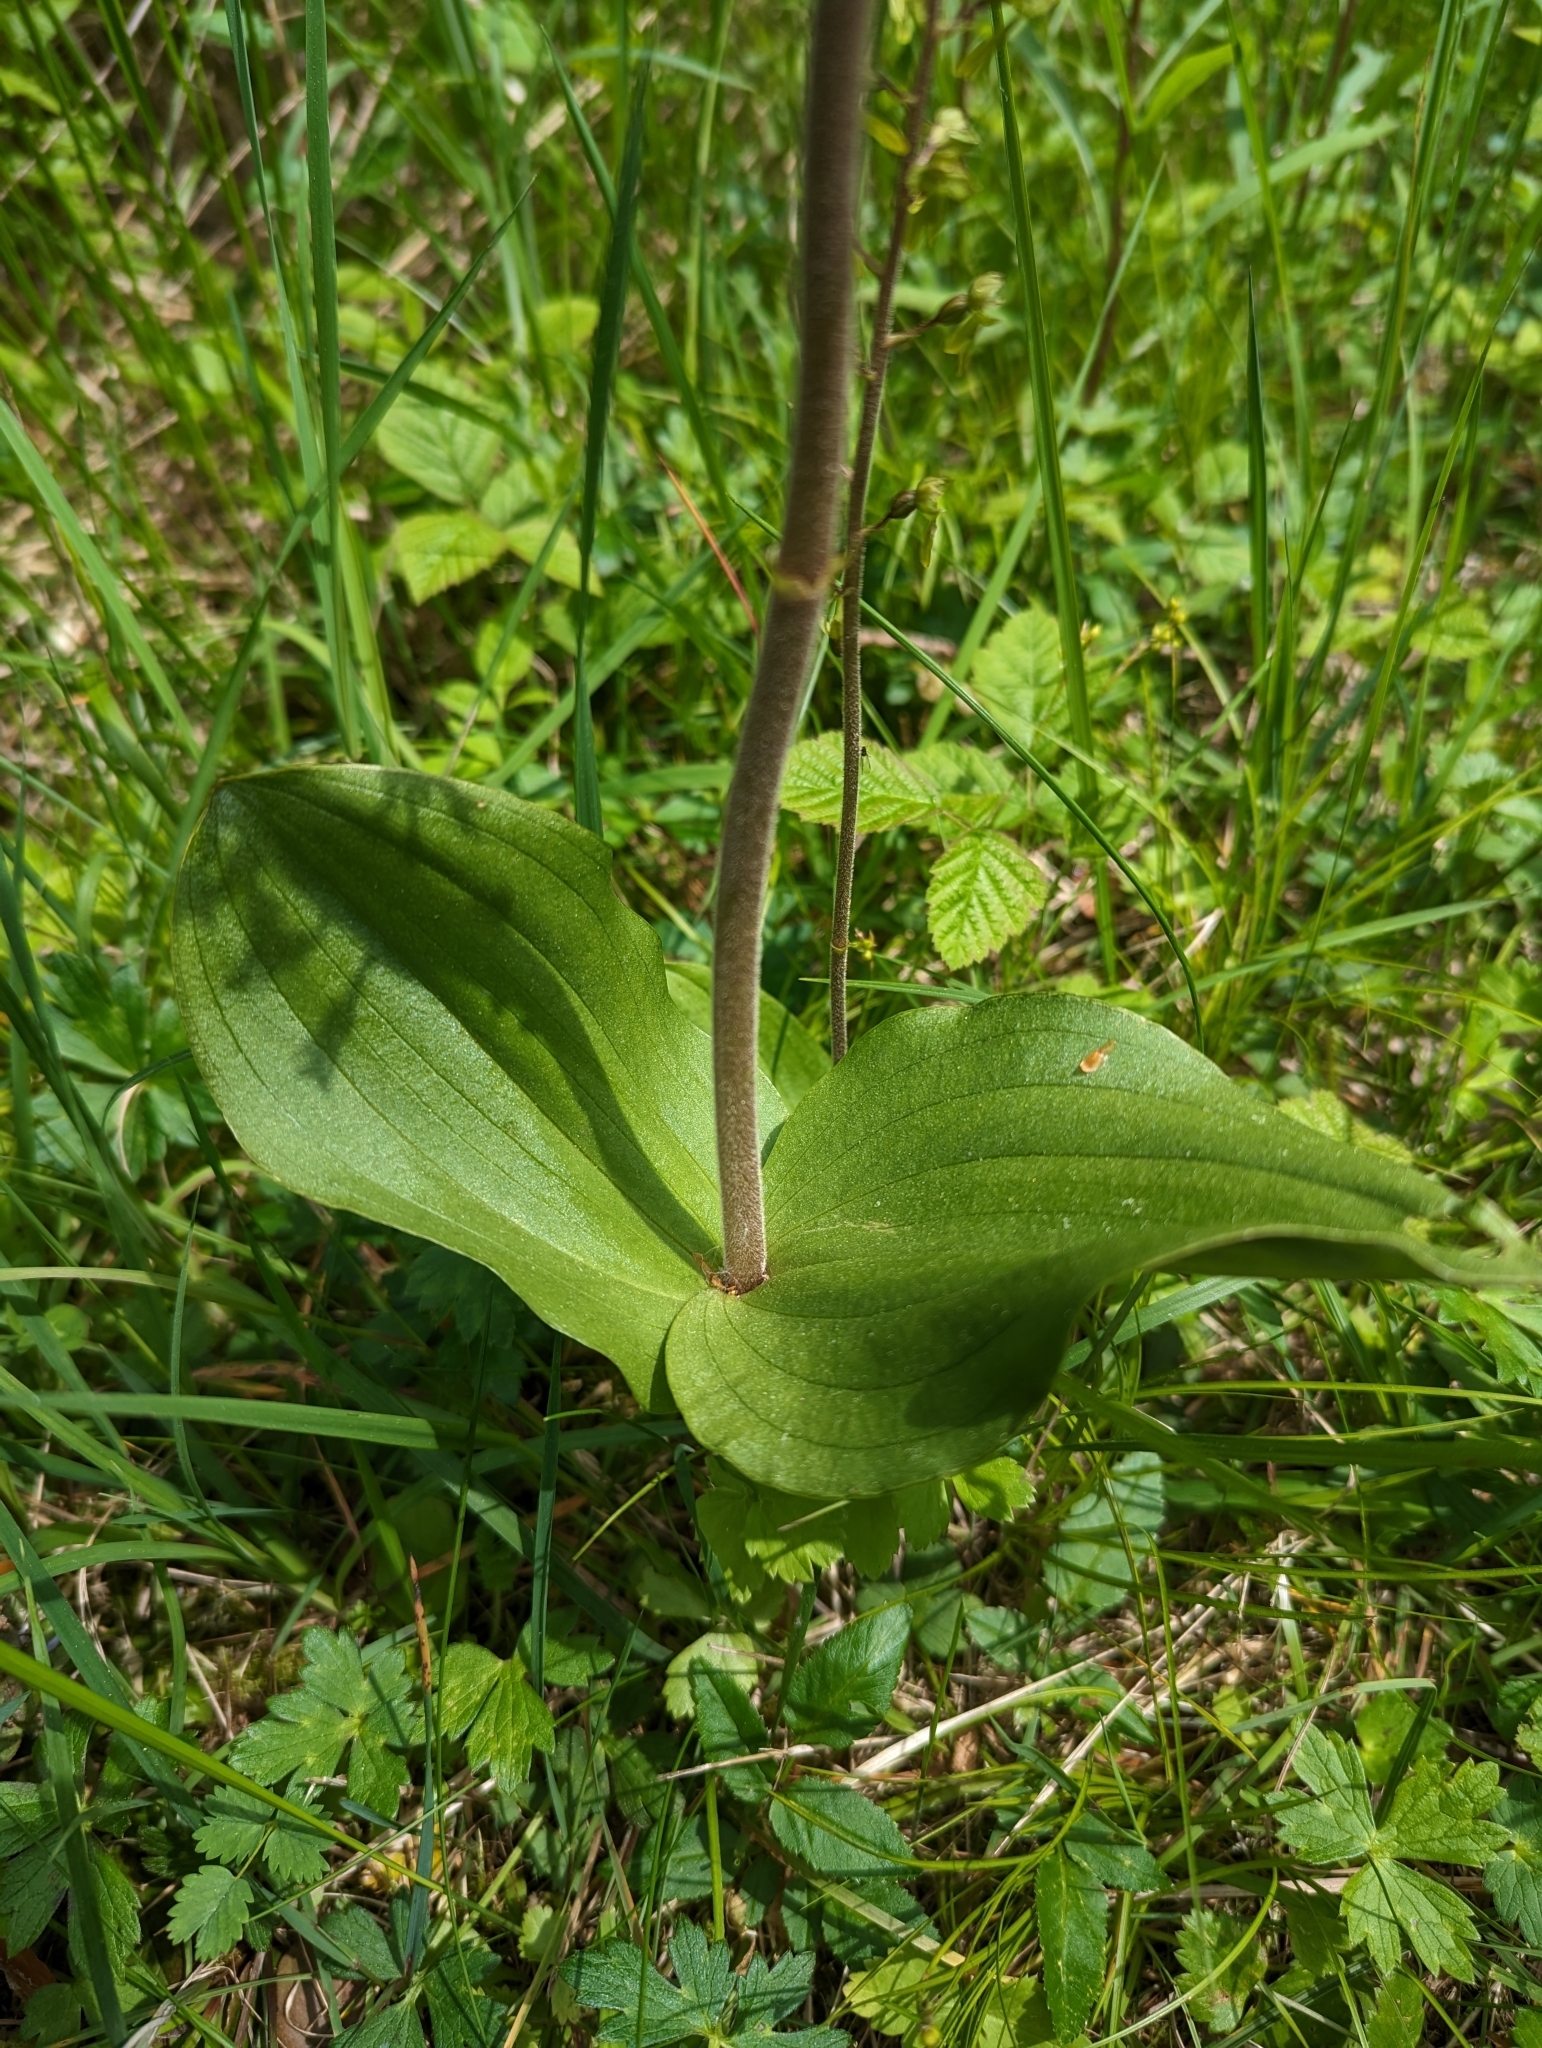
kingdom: Plantae
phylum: Tracheophyta
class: Liliopsida
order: Asparagales
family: Orchidaceae
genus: Neottia
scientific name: Neottia ovata
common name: Common twayblade
